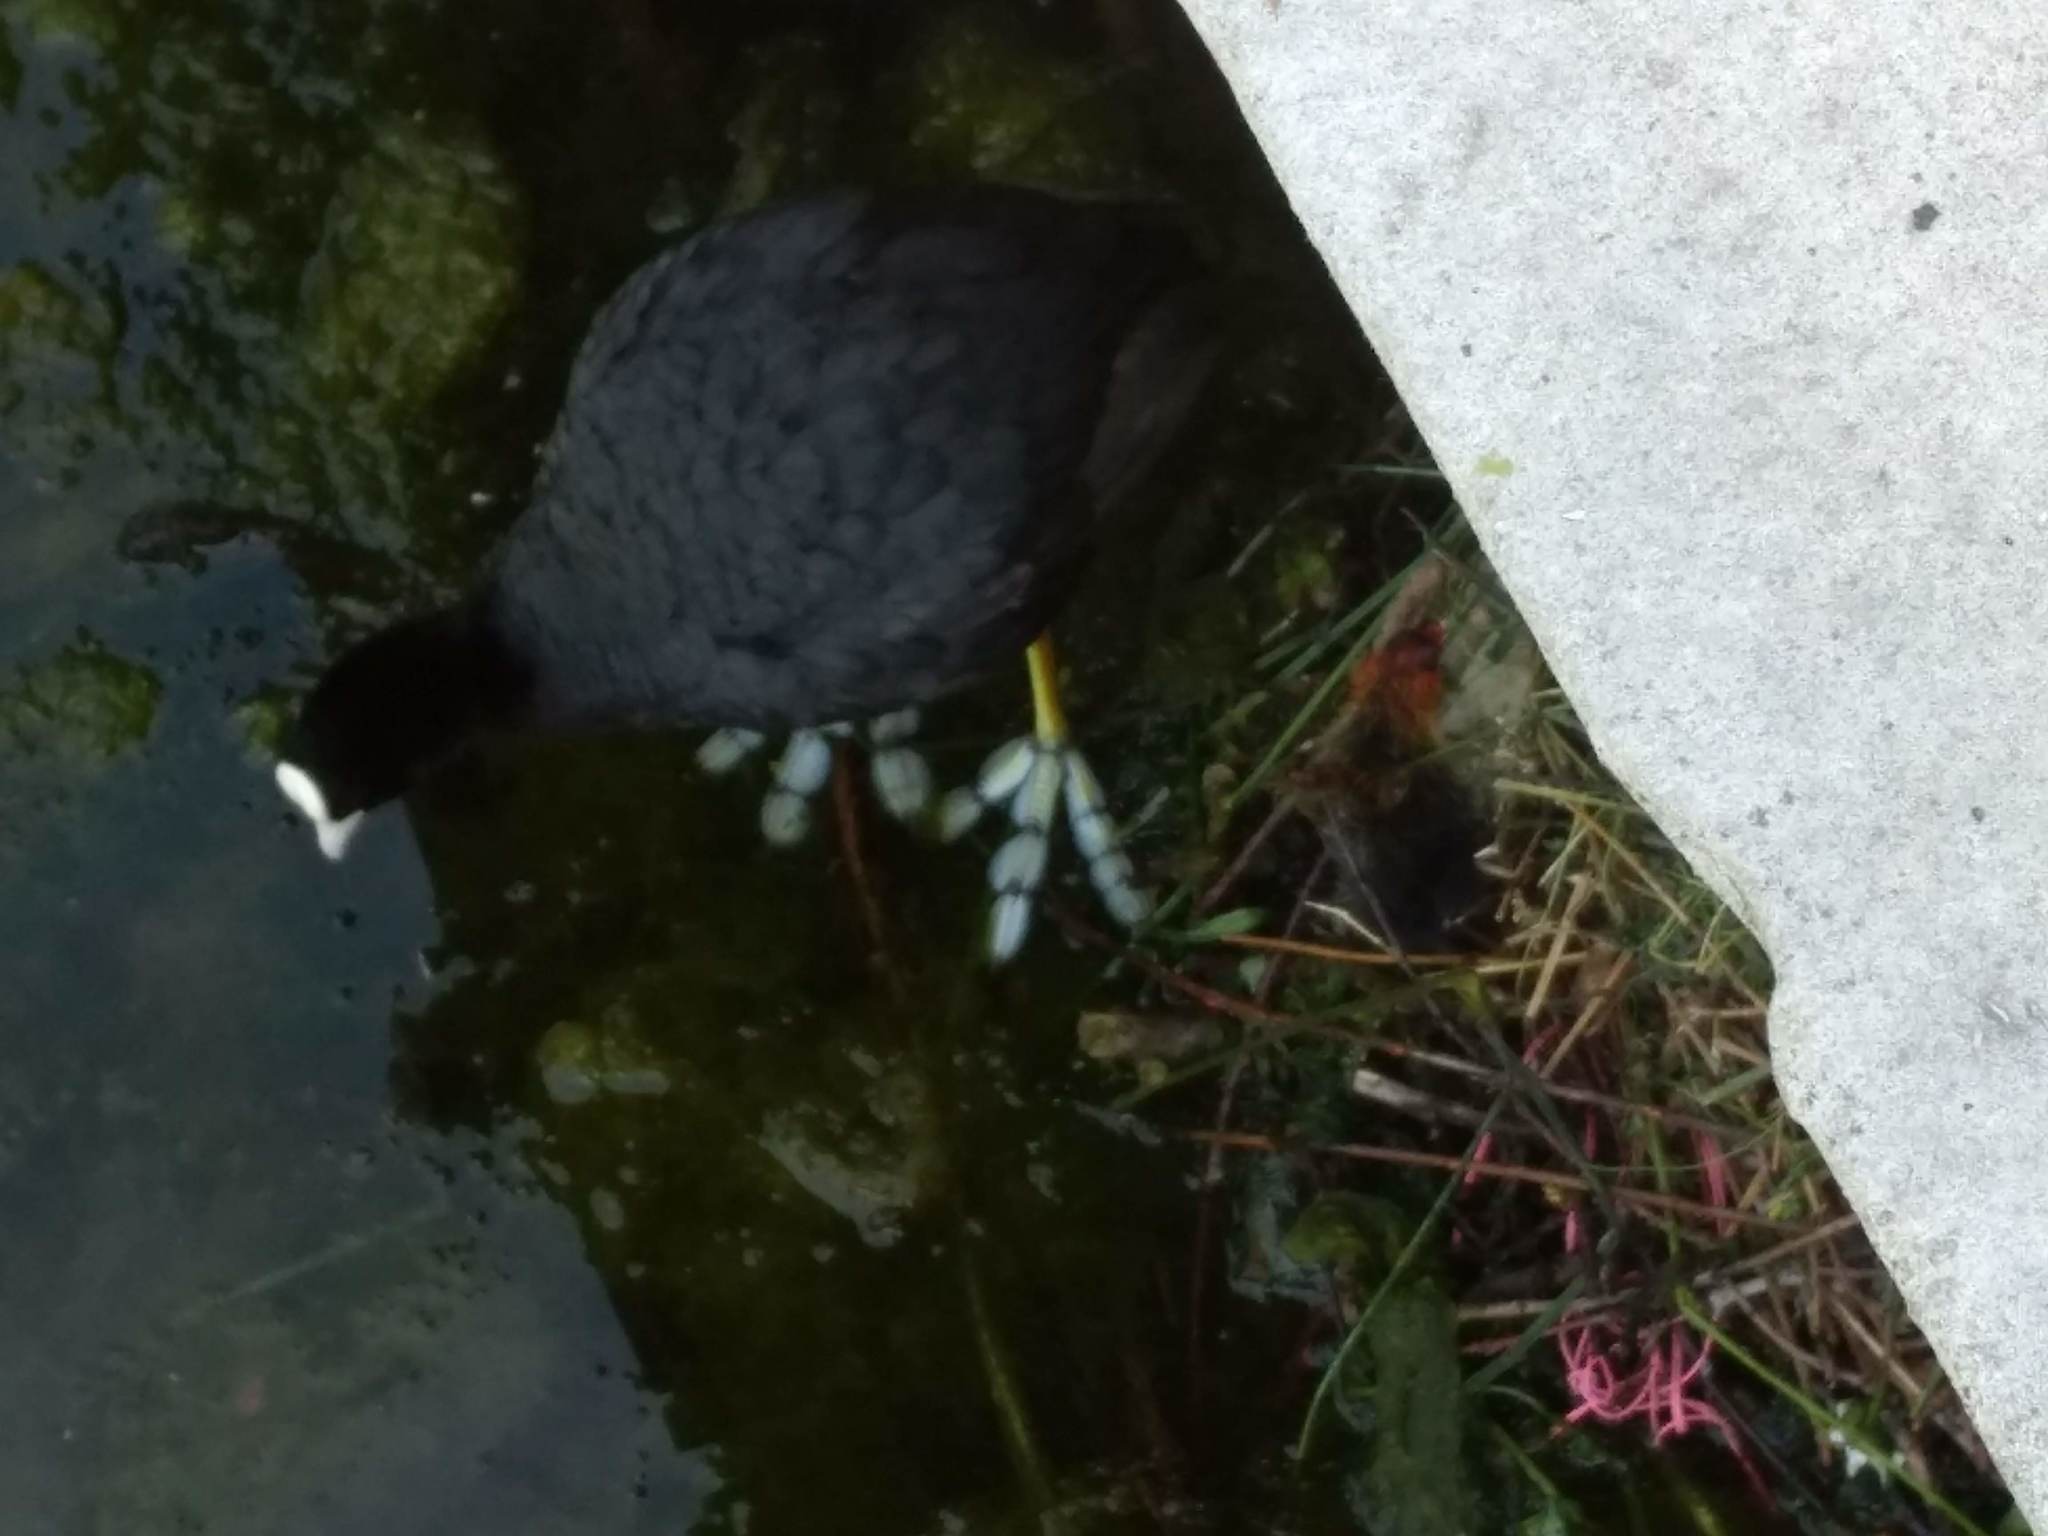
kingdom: Animalia
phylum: Chordata
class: Aves
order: Gruiformes
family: Rallidae
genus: Fulica
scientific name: Fulica atra
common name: Eurasian coot
